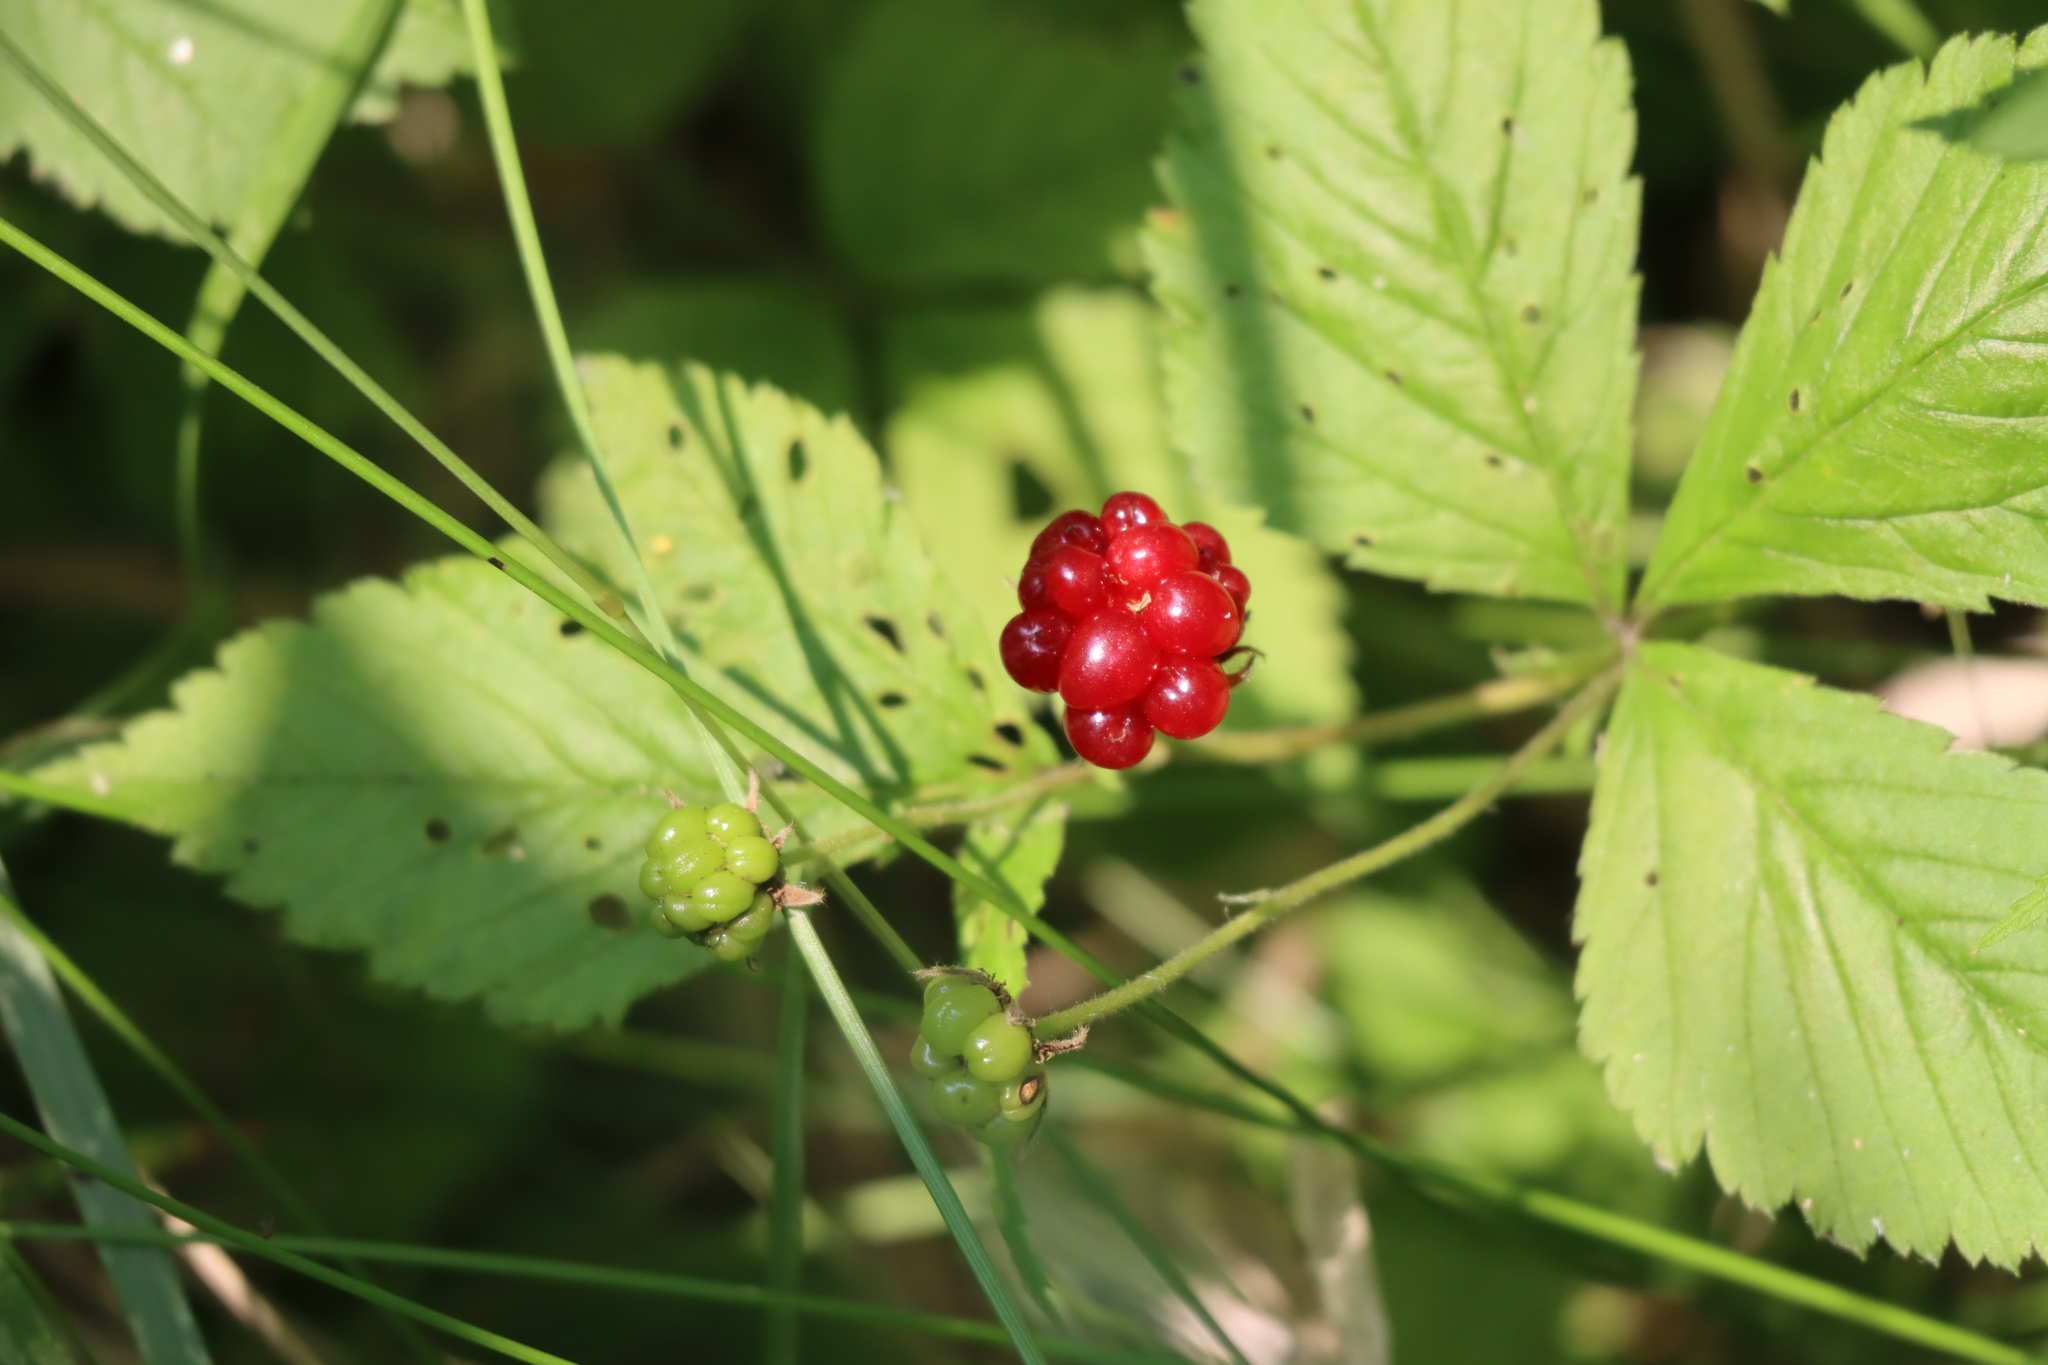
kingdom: Plantae
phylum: Tracheophyta
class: Magnoliopsida
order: Rosales
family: Rosaceae
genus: Rubus
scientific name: Rubus pubescens
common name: Dwarf raspberry
